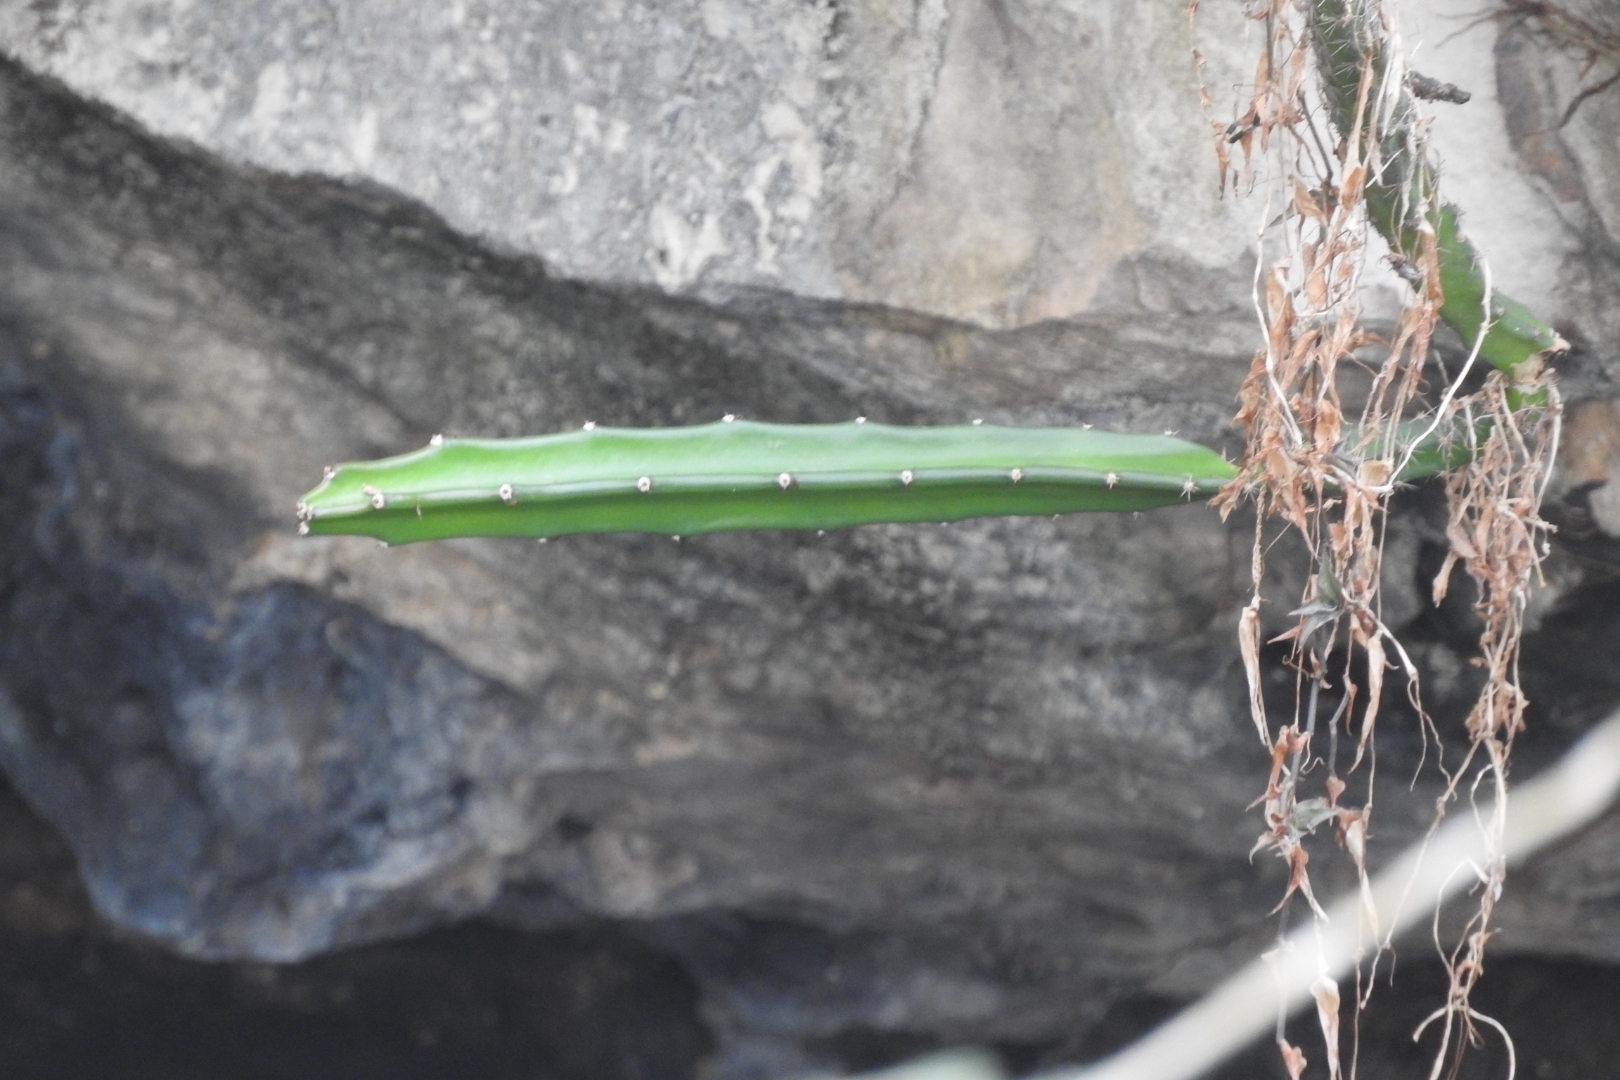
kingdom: Plantae
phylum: Tracheophyta
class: Magnoliopsida
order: Caryophyllales
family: Cactaceae
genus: Acanthocereus
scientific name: Acanthocereus tetragonus
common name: Triangle cactus
